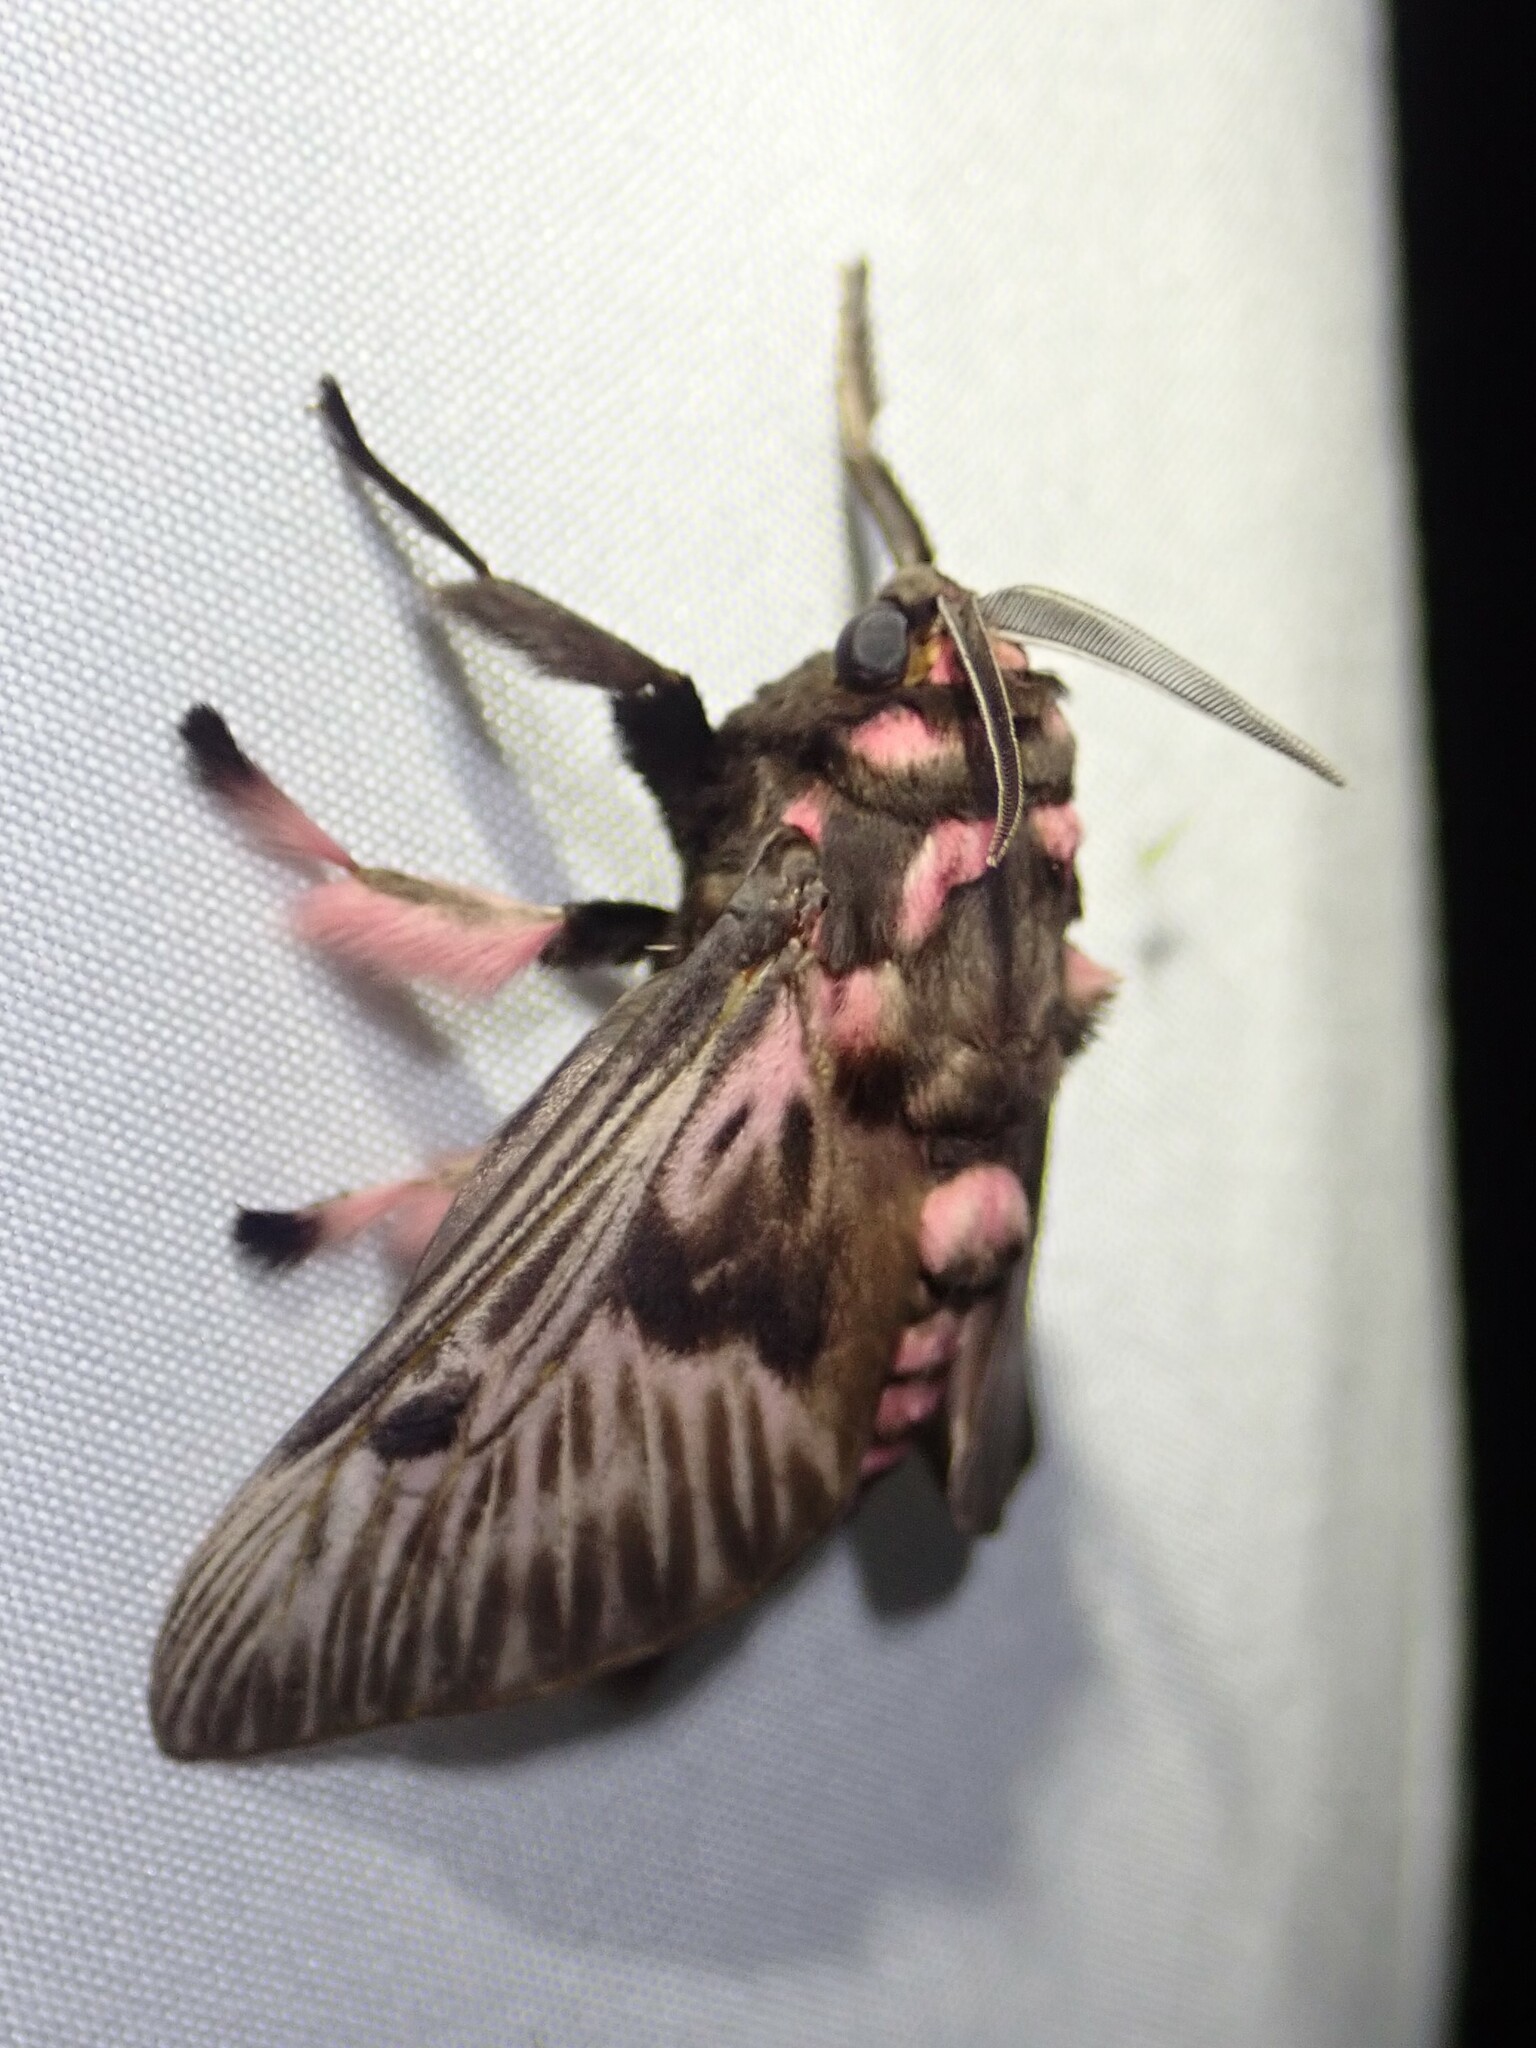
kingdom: Animalia
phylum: Arthropoda
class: Insecta
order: Lepidoptera
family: Megalopygidae
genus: Megalopyge
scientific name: Megalopyge lanata
